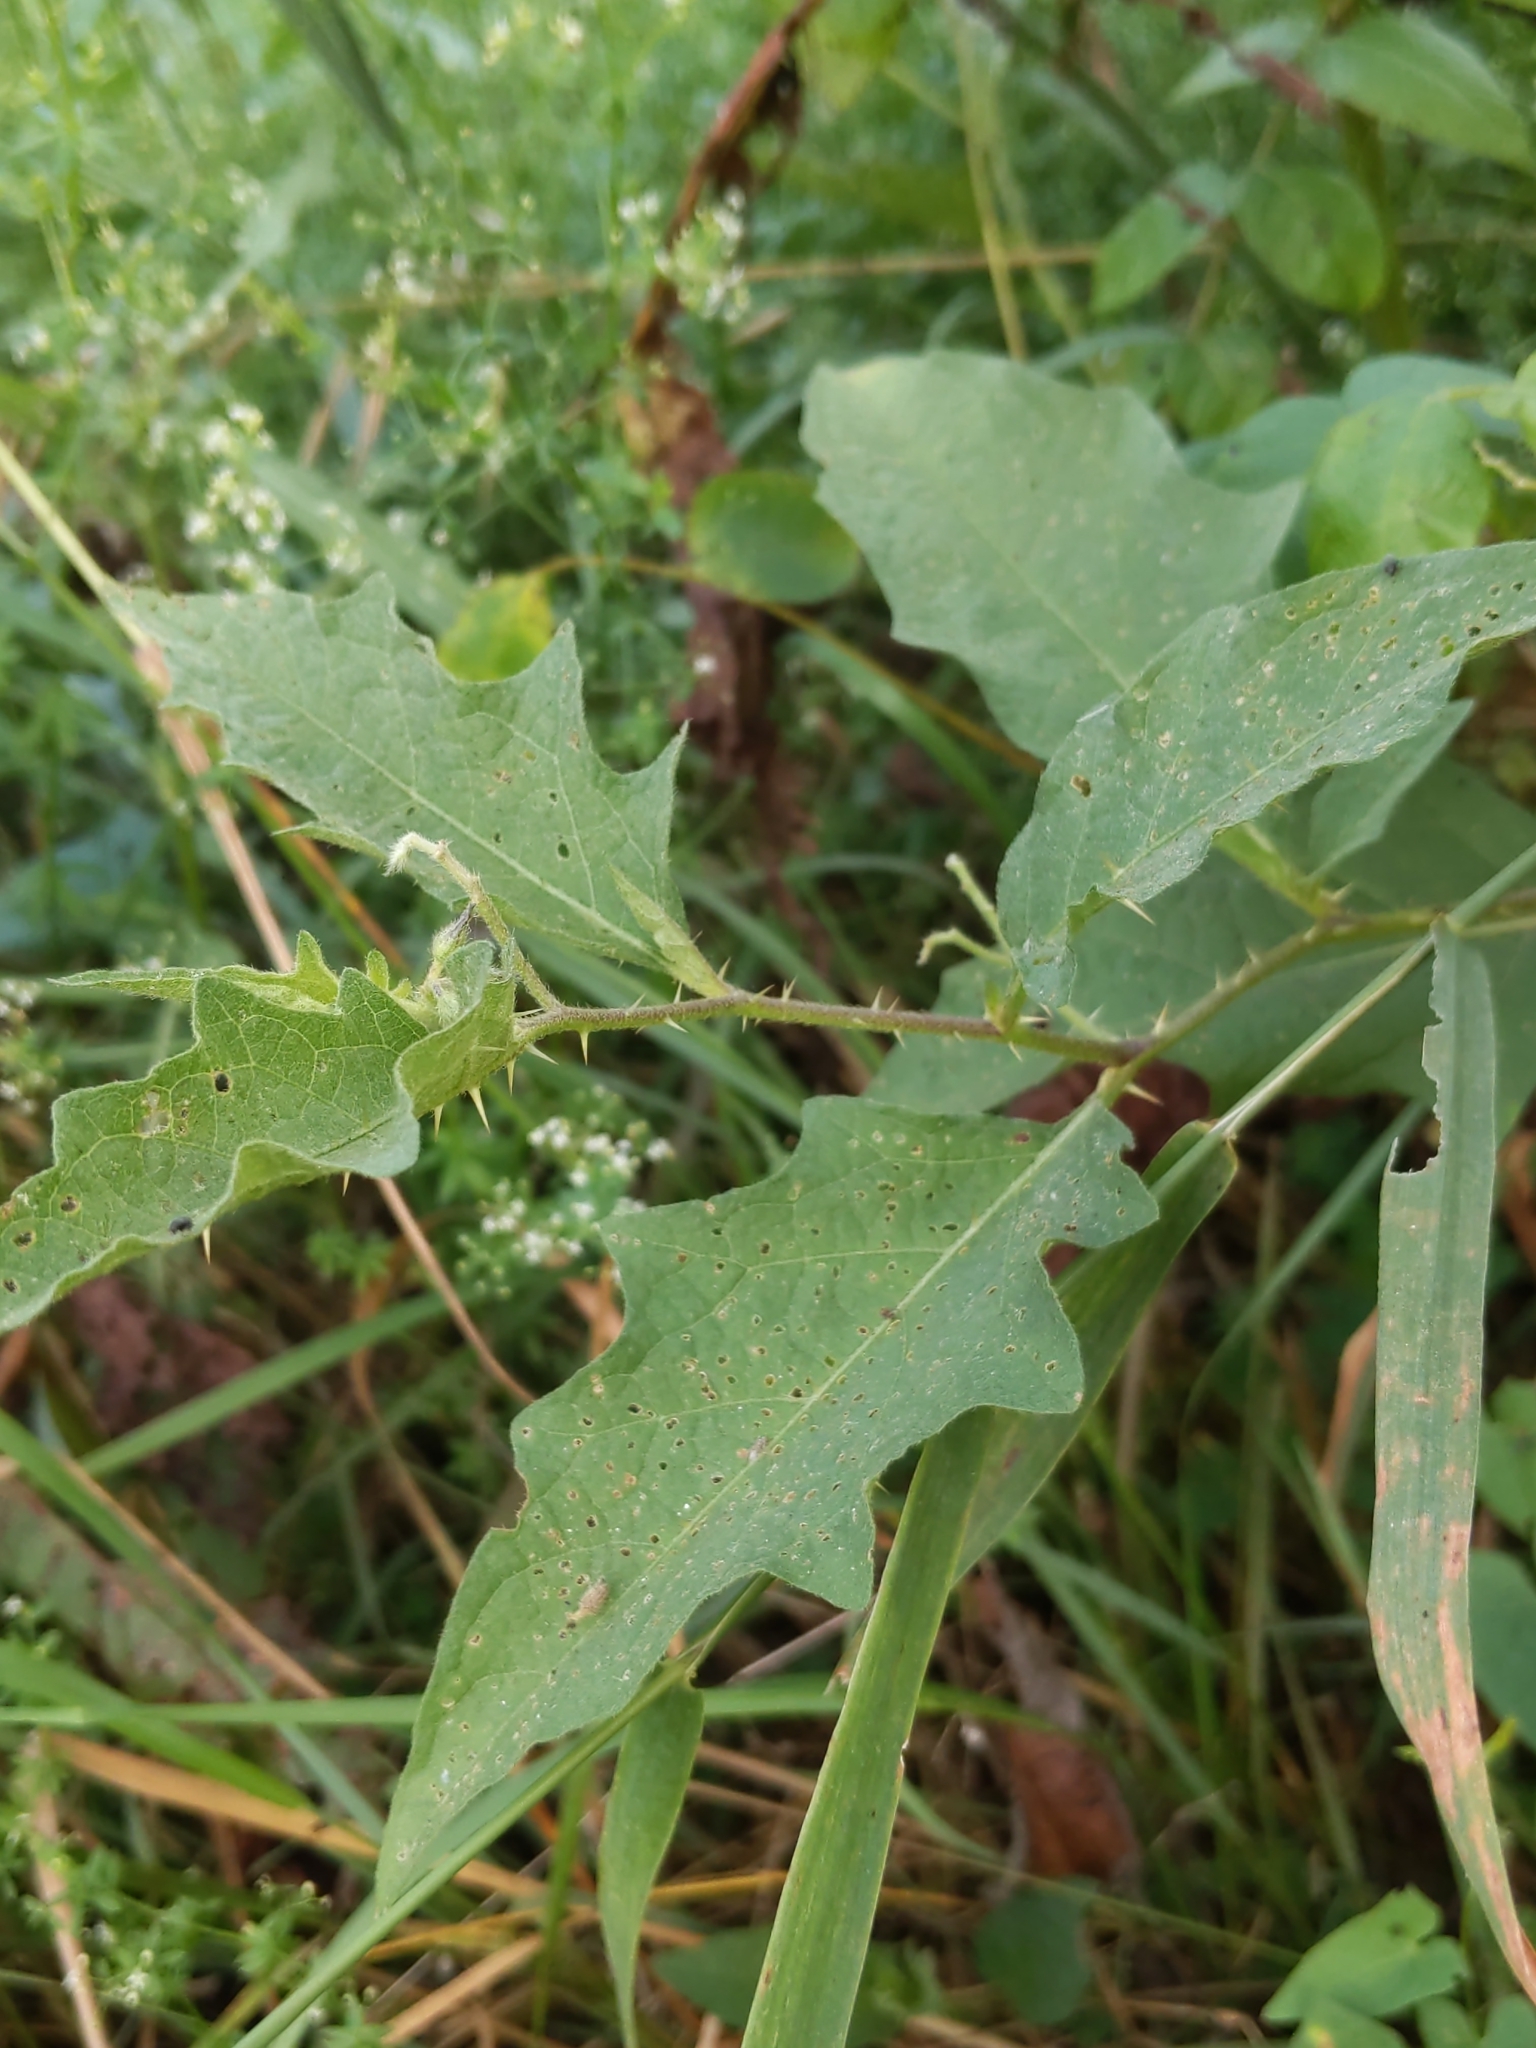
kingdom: Plantae
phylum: Tracheophyta
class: Magnoliopsida
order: Solanales
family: Solanaceae
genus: Solanum
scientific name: Solanum carolinense
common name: Horse-nettle
